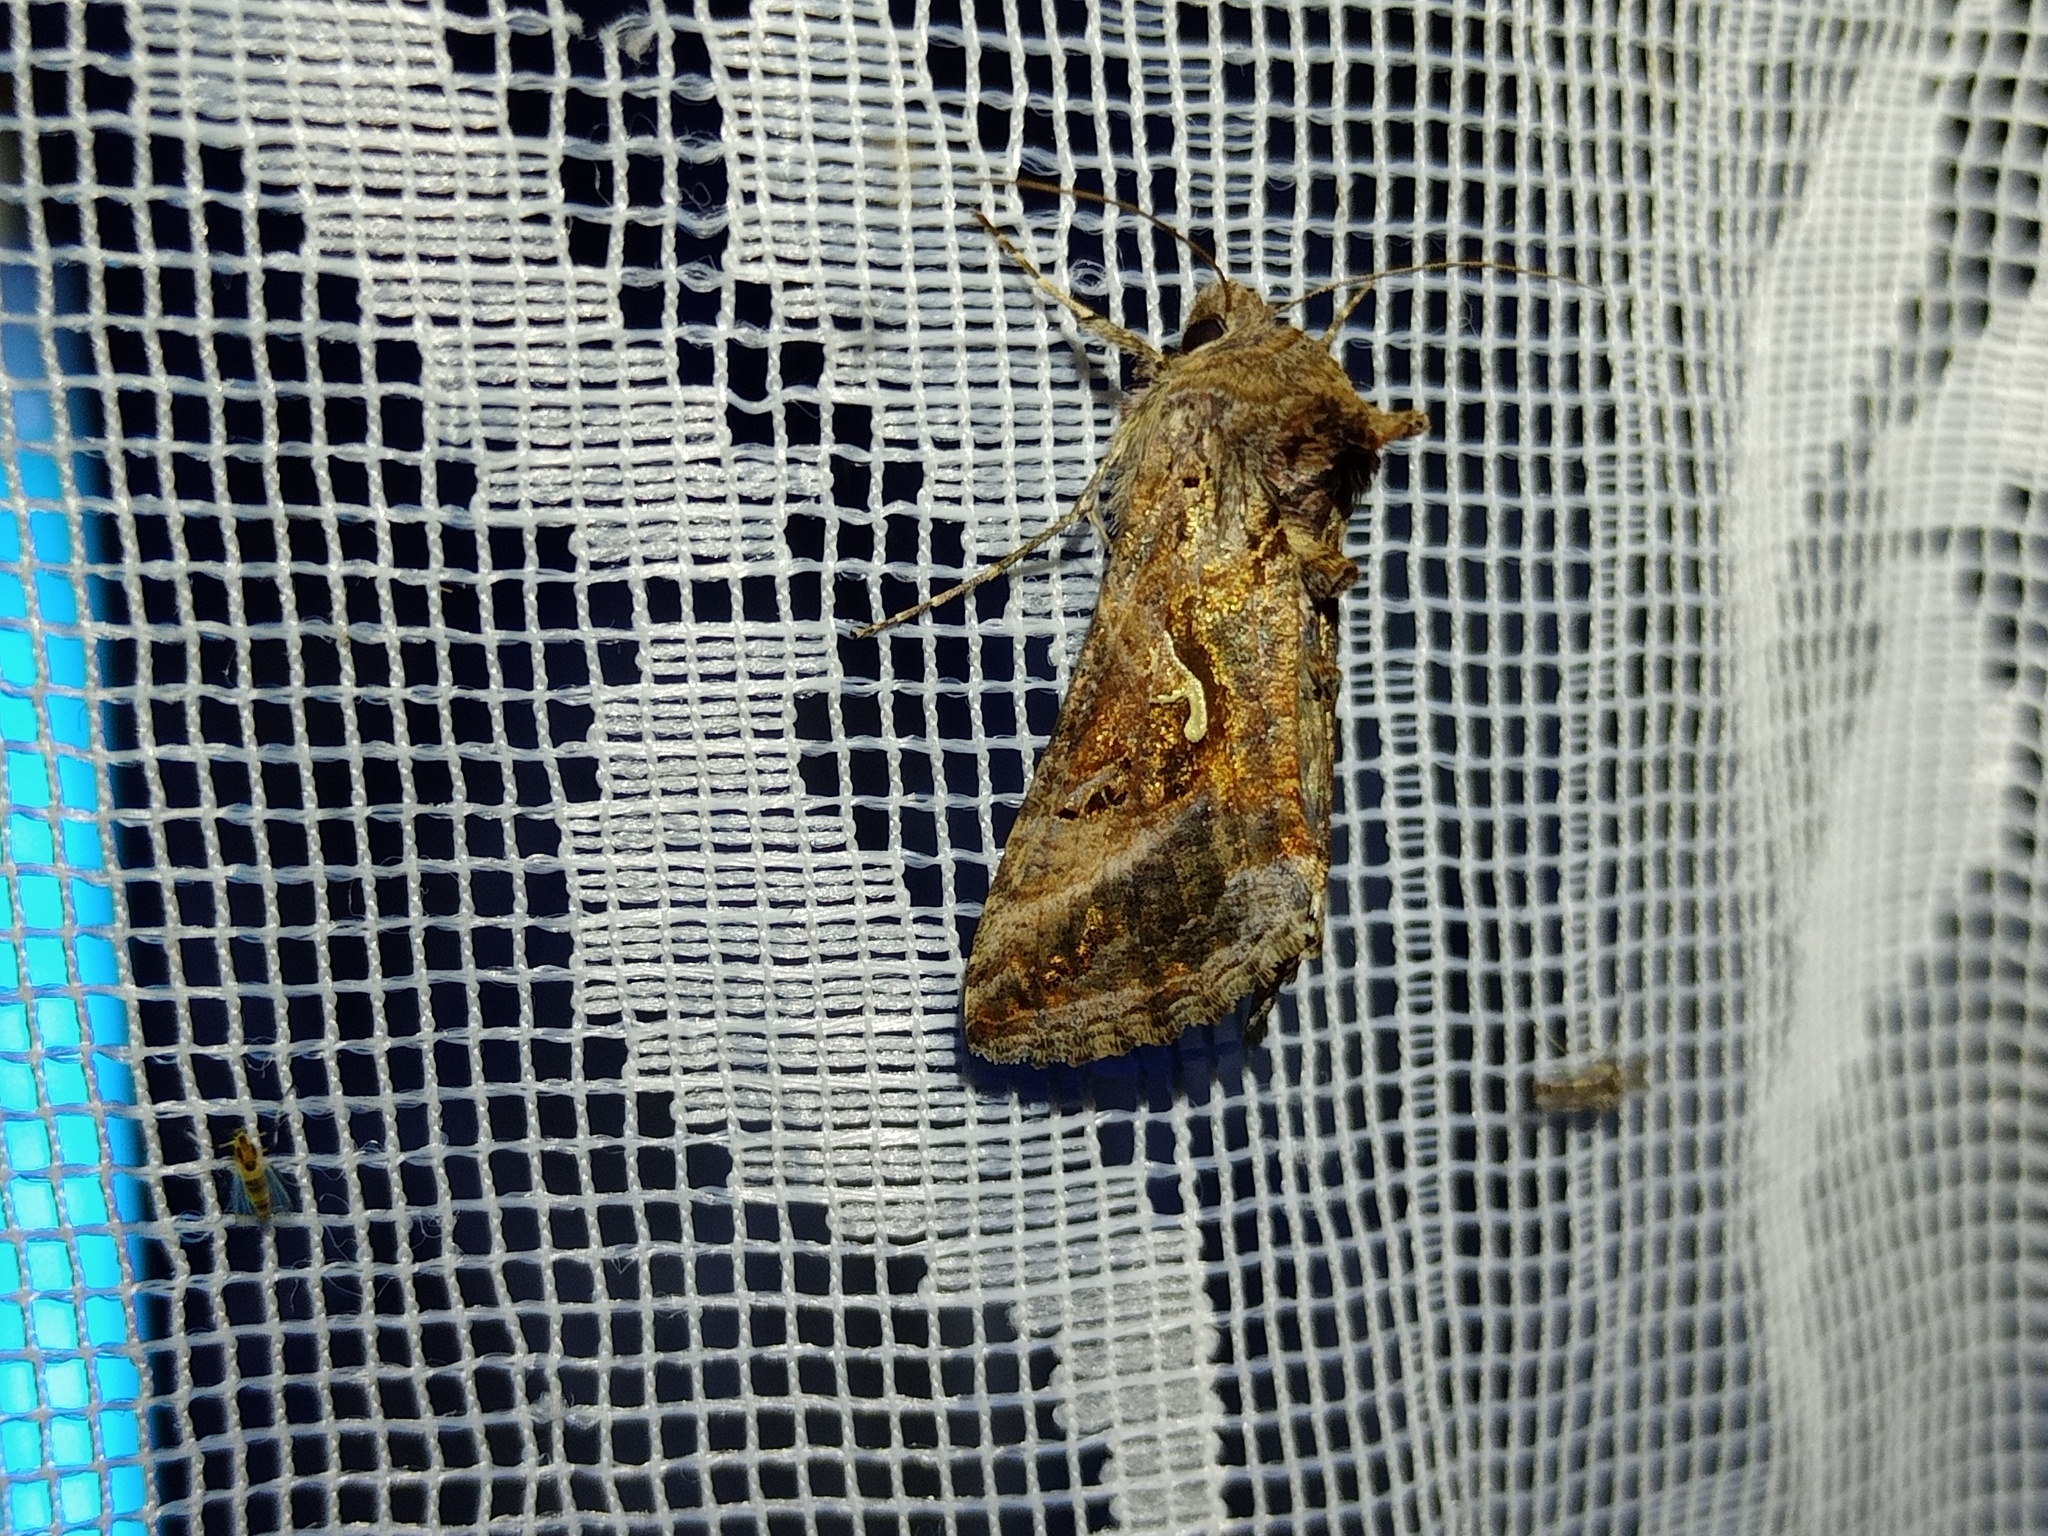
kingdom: Animalia
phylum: Arthropoda
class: Insecta
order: Lepidoptera
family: Noctuidae
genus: Autographa
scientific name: Autographa gamma
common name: Silver y
